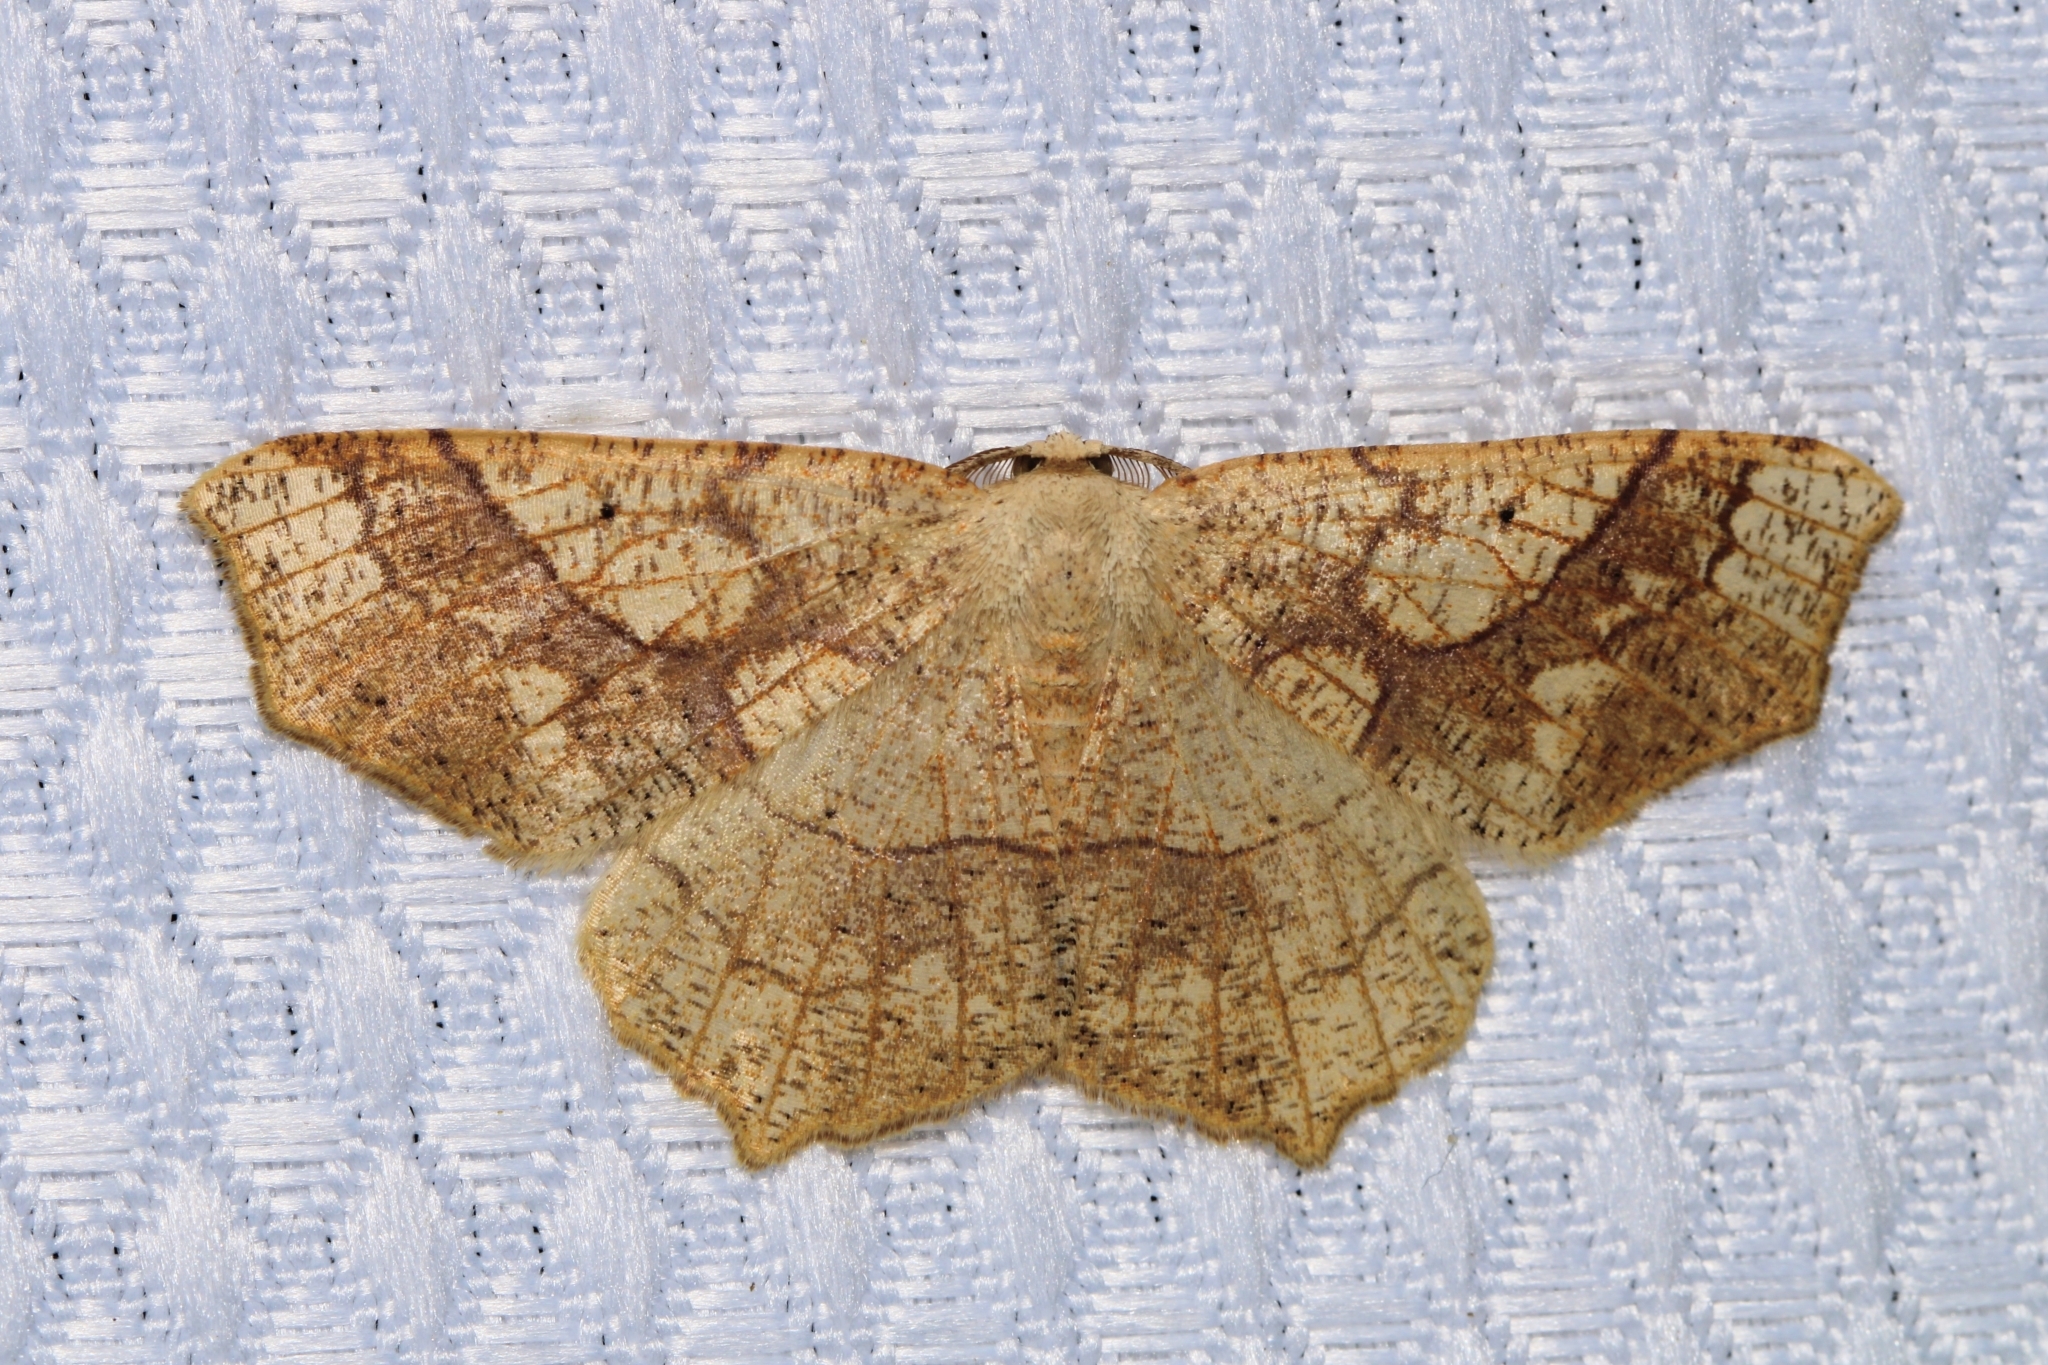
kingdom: Animalia
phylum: Arthropoda
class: Insecta
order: Lepidoptera
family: Geometridae
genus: Besma
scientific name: Besma quercivoraria
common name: Oak besma
